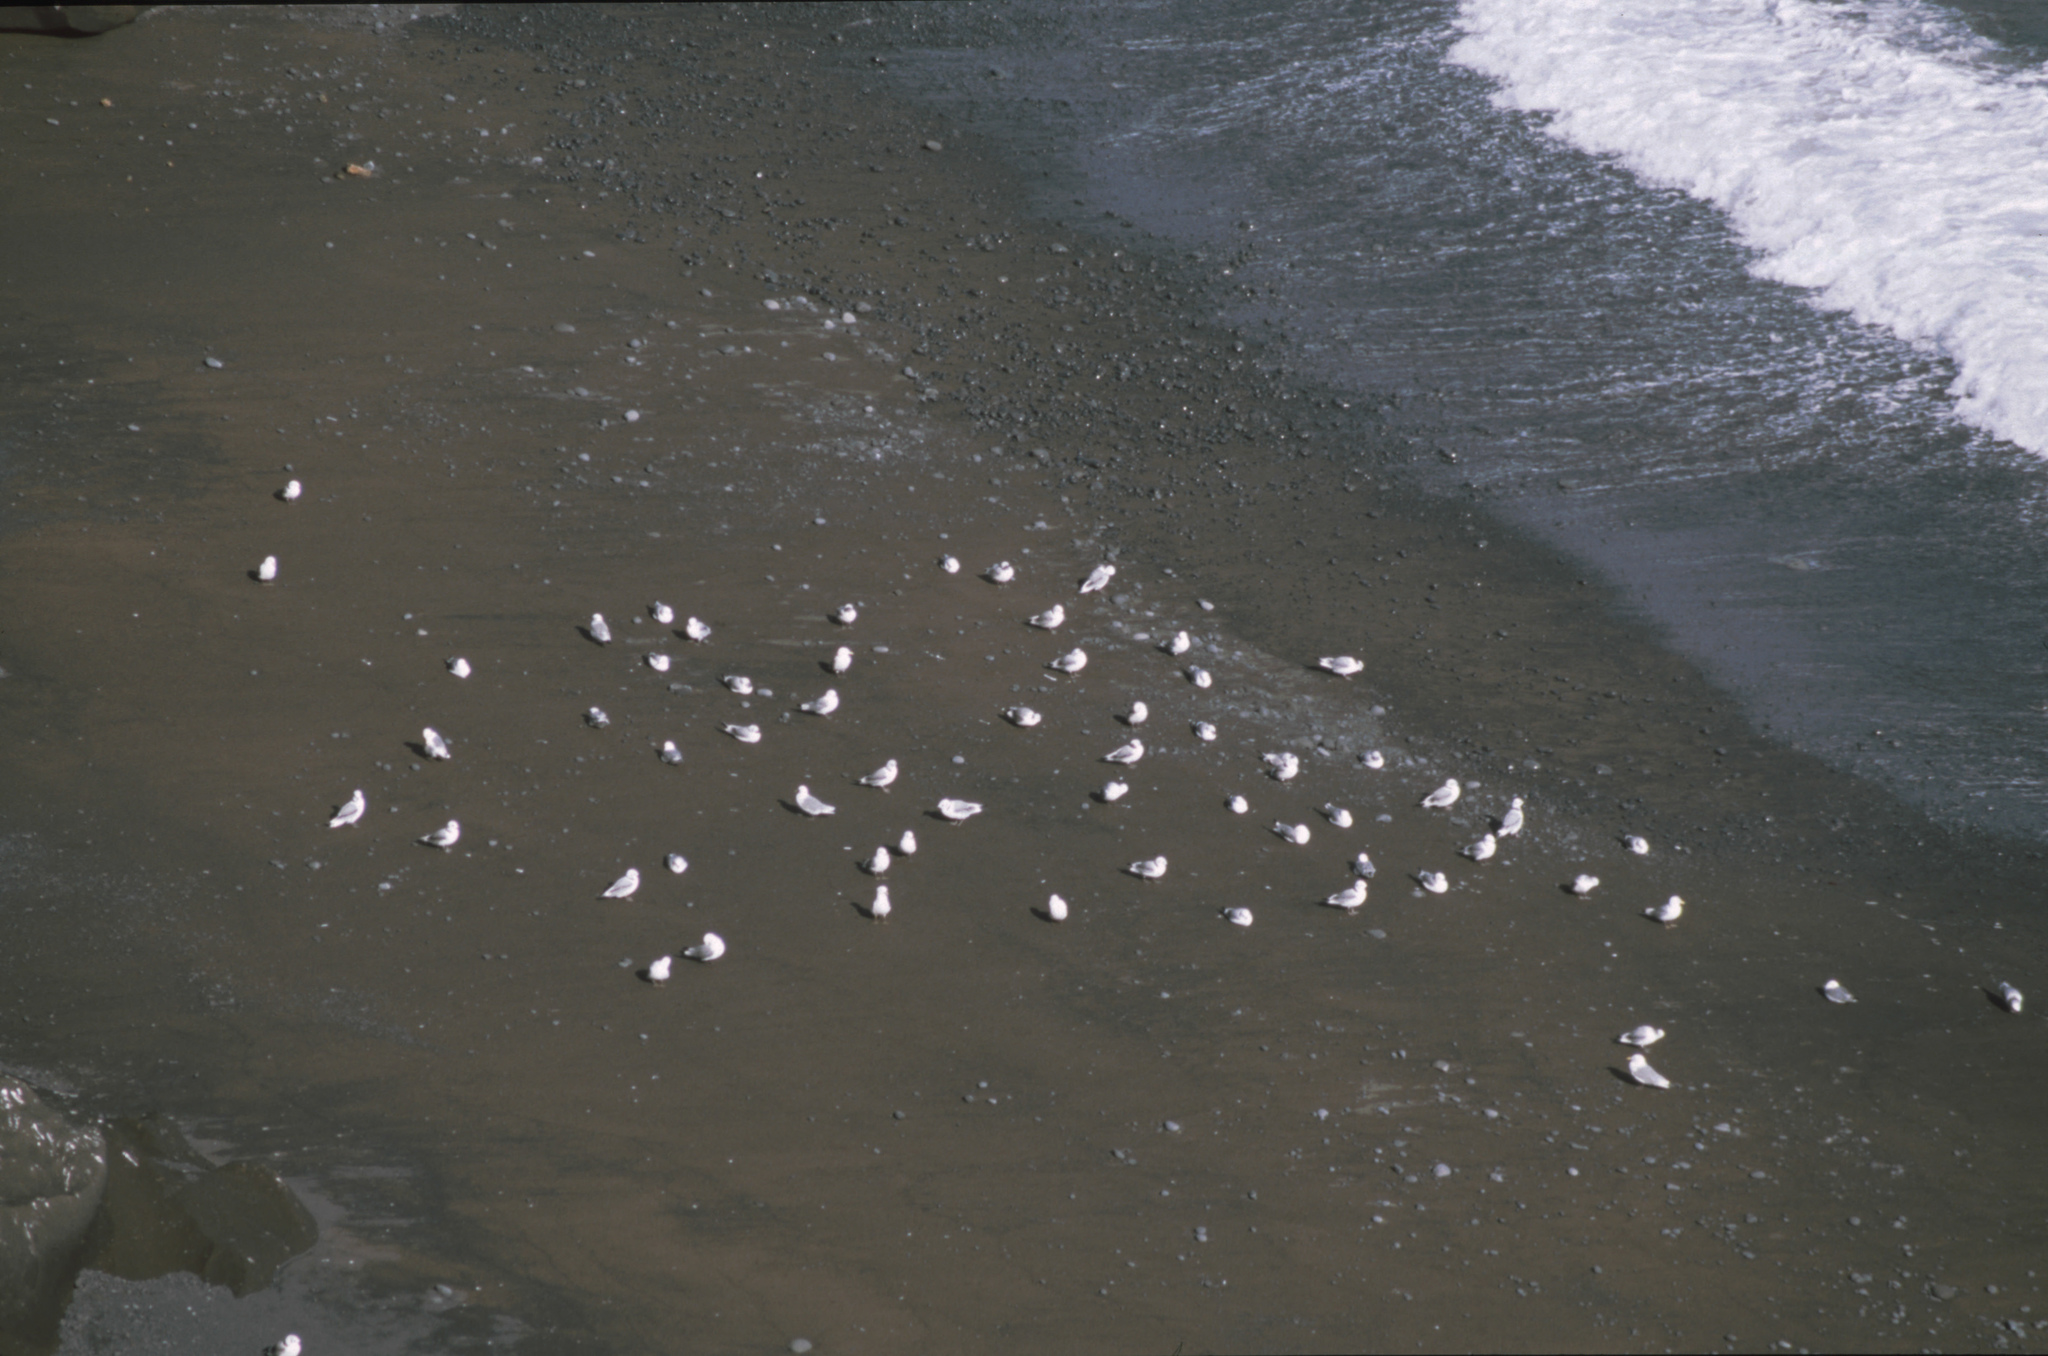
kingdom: Animalia
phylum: Chordata
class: Aves
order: Charadriiformes
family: Laridae
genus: Rissa
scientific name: Rissa tridactyla
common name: Black-legged kittiwake
